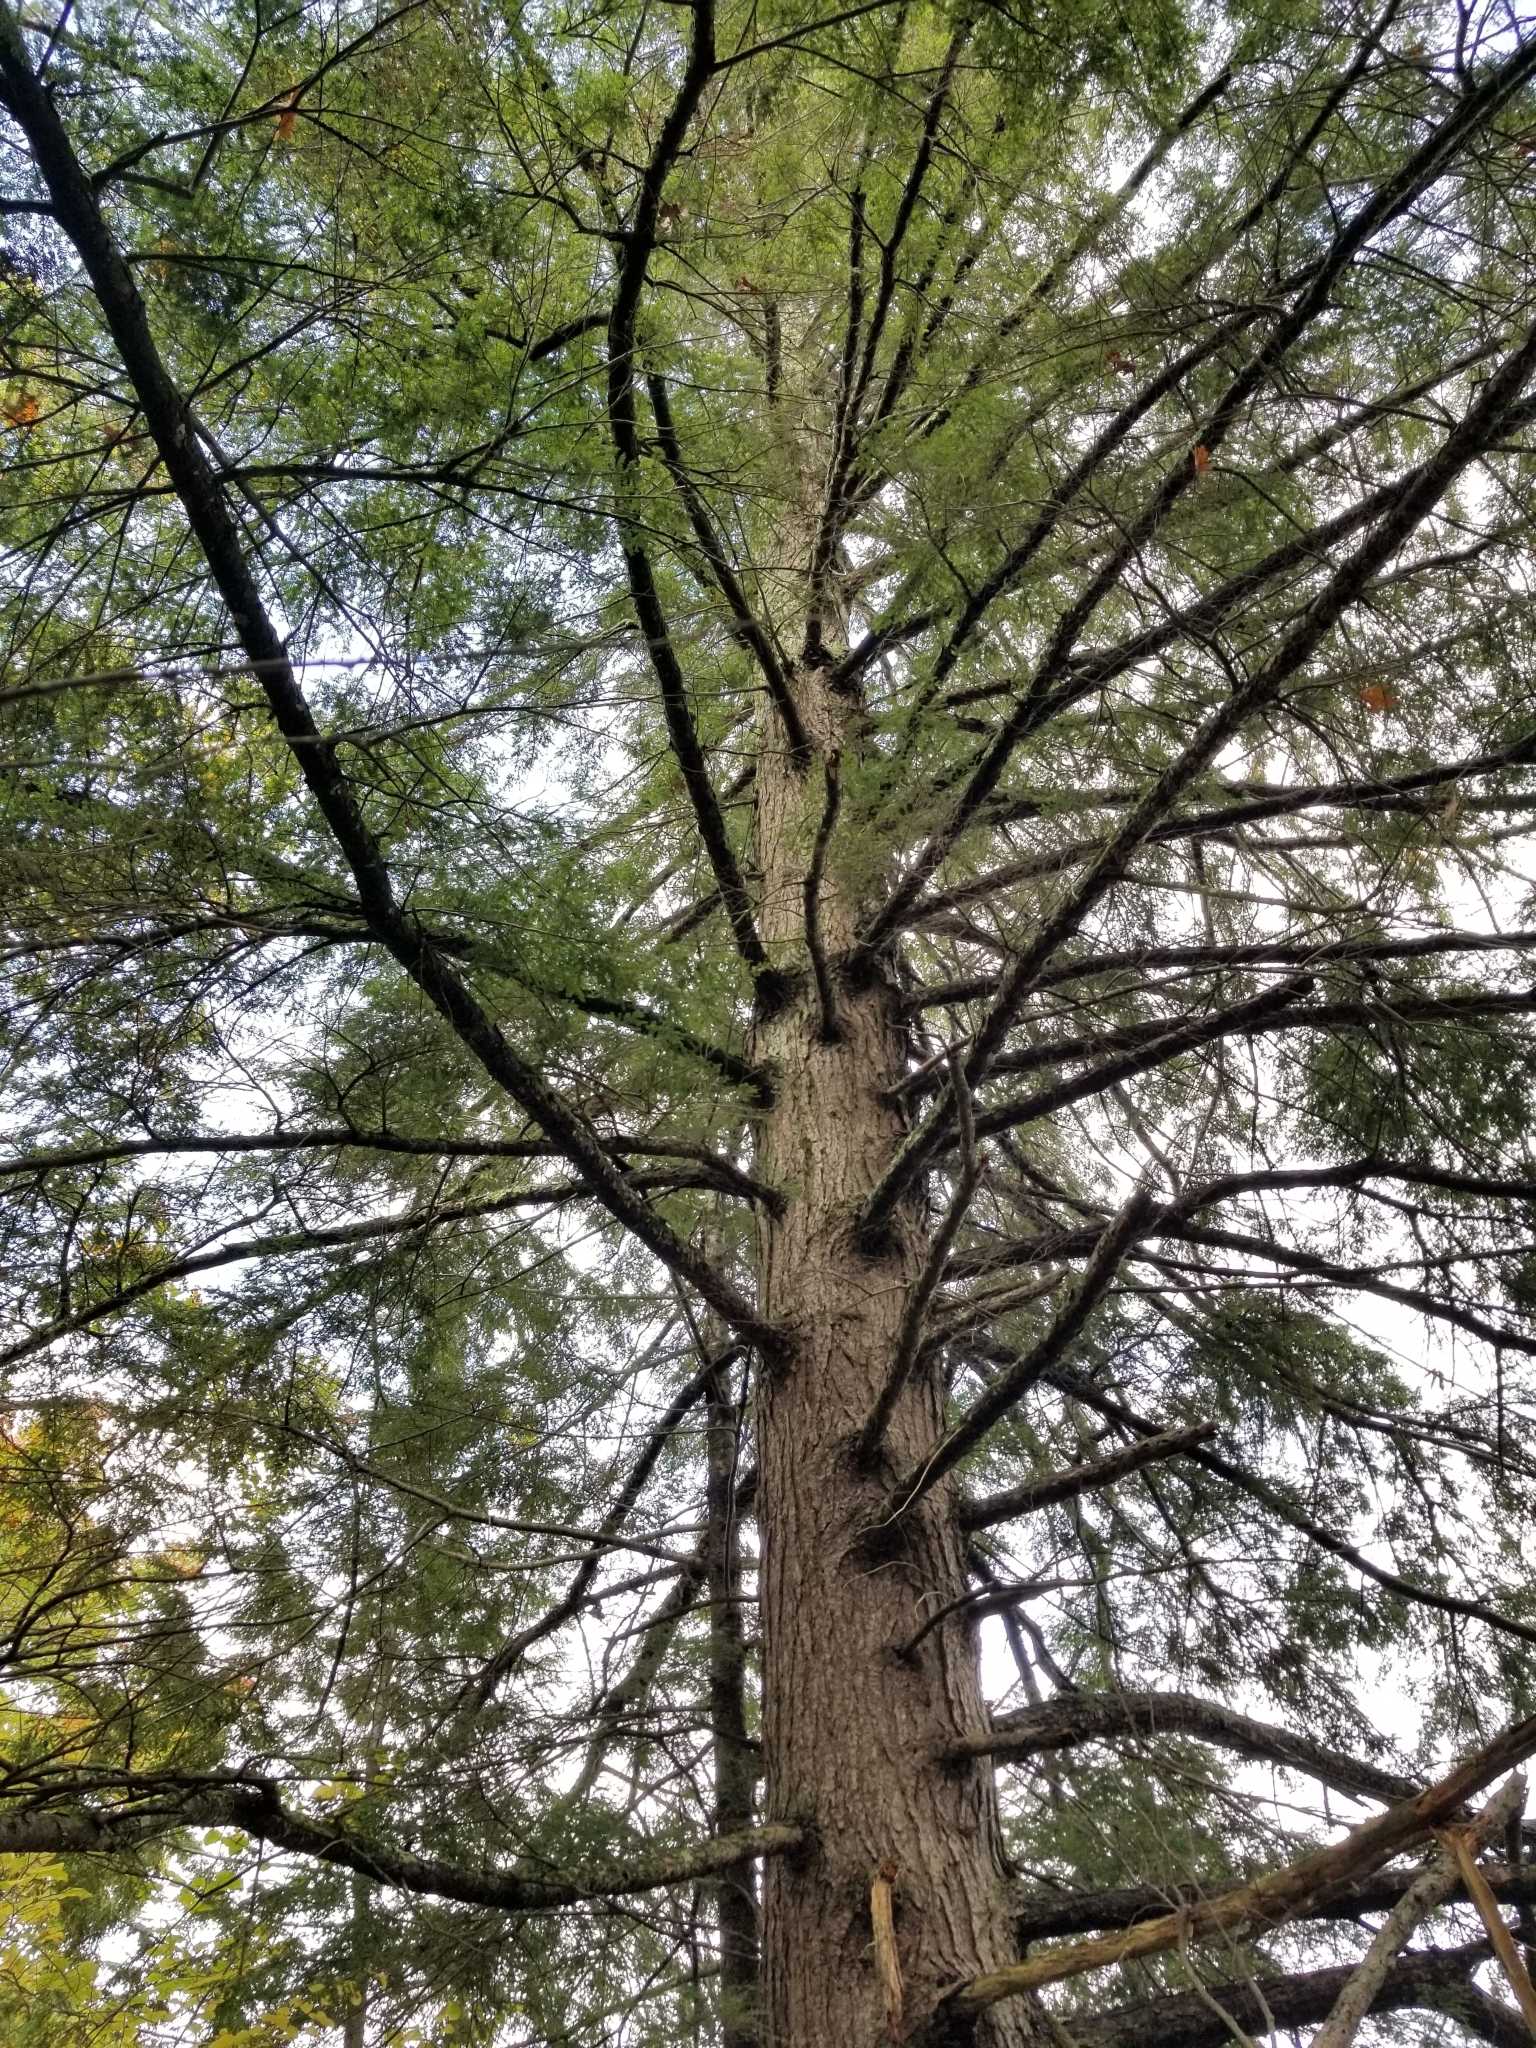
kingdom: Plantae
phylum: Tracheophyta
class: Pinopsida
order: Pinales
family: Pinaceae
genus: Tsuga
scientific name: Tsuga canadensis
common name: Eastern hemlock
